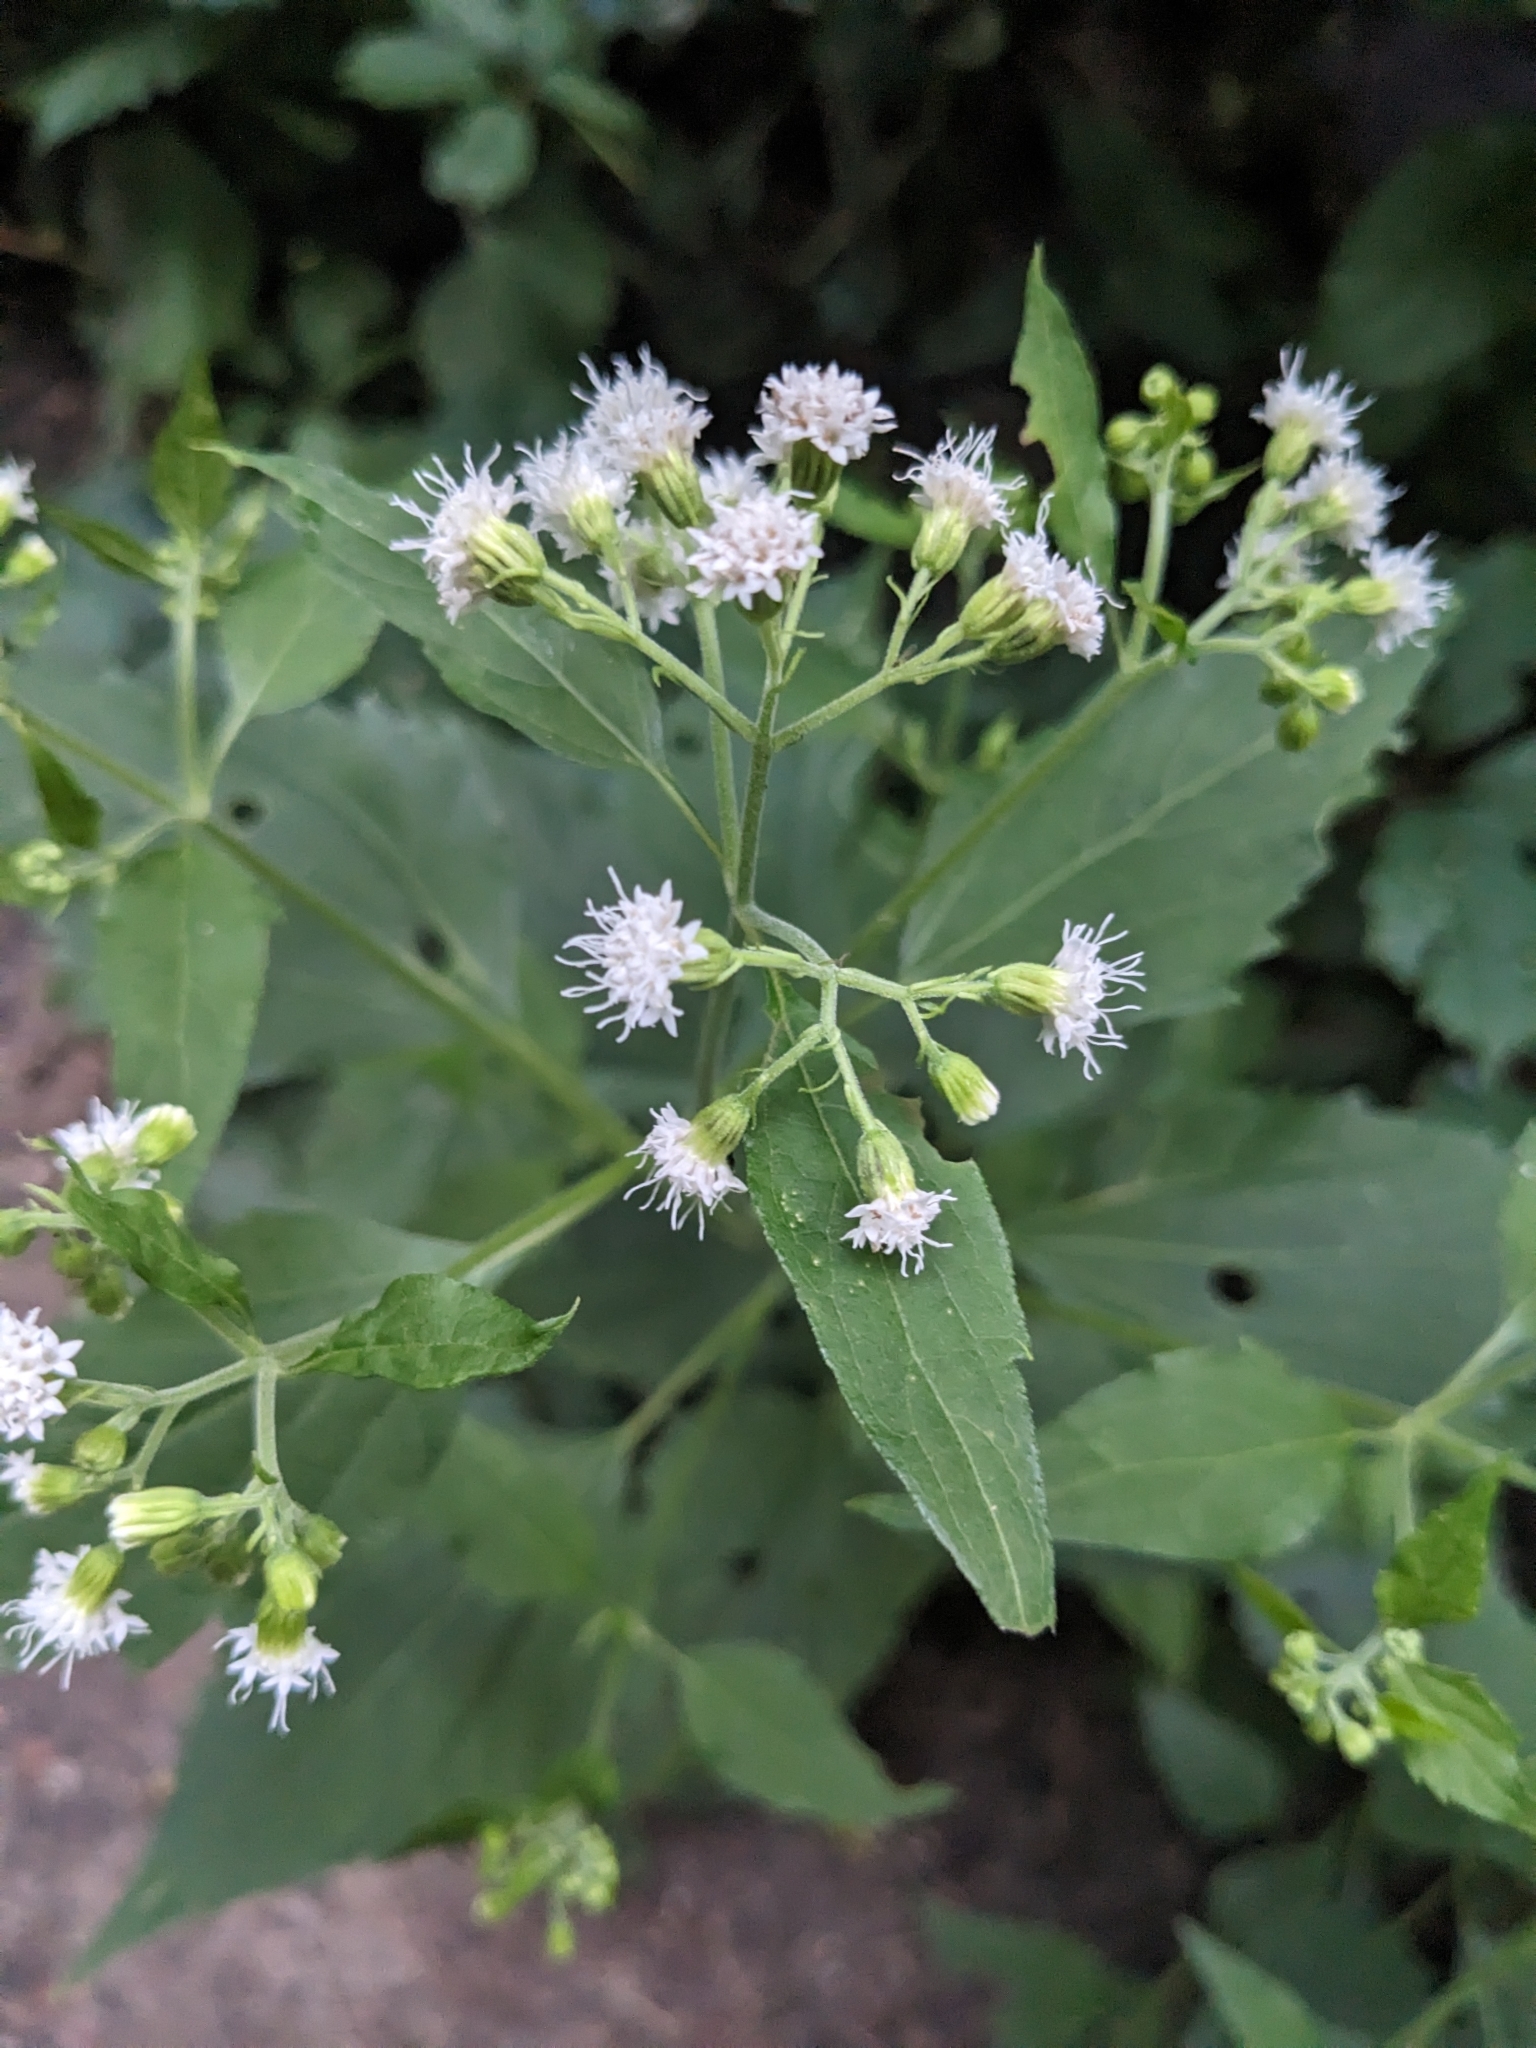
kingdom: Plantae
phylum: Tracheophyta
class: Magnoliopsida
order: Asterales
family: Asteraceae
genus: Ageratina
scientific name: Ageratina altissima
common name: White snakeroot
